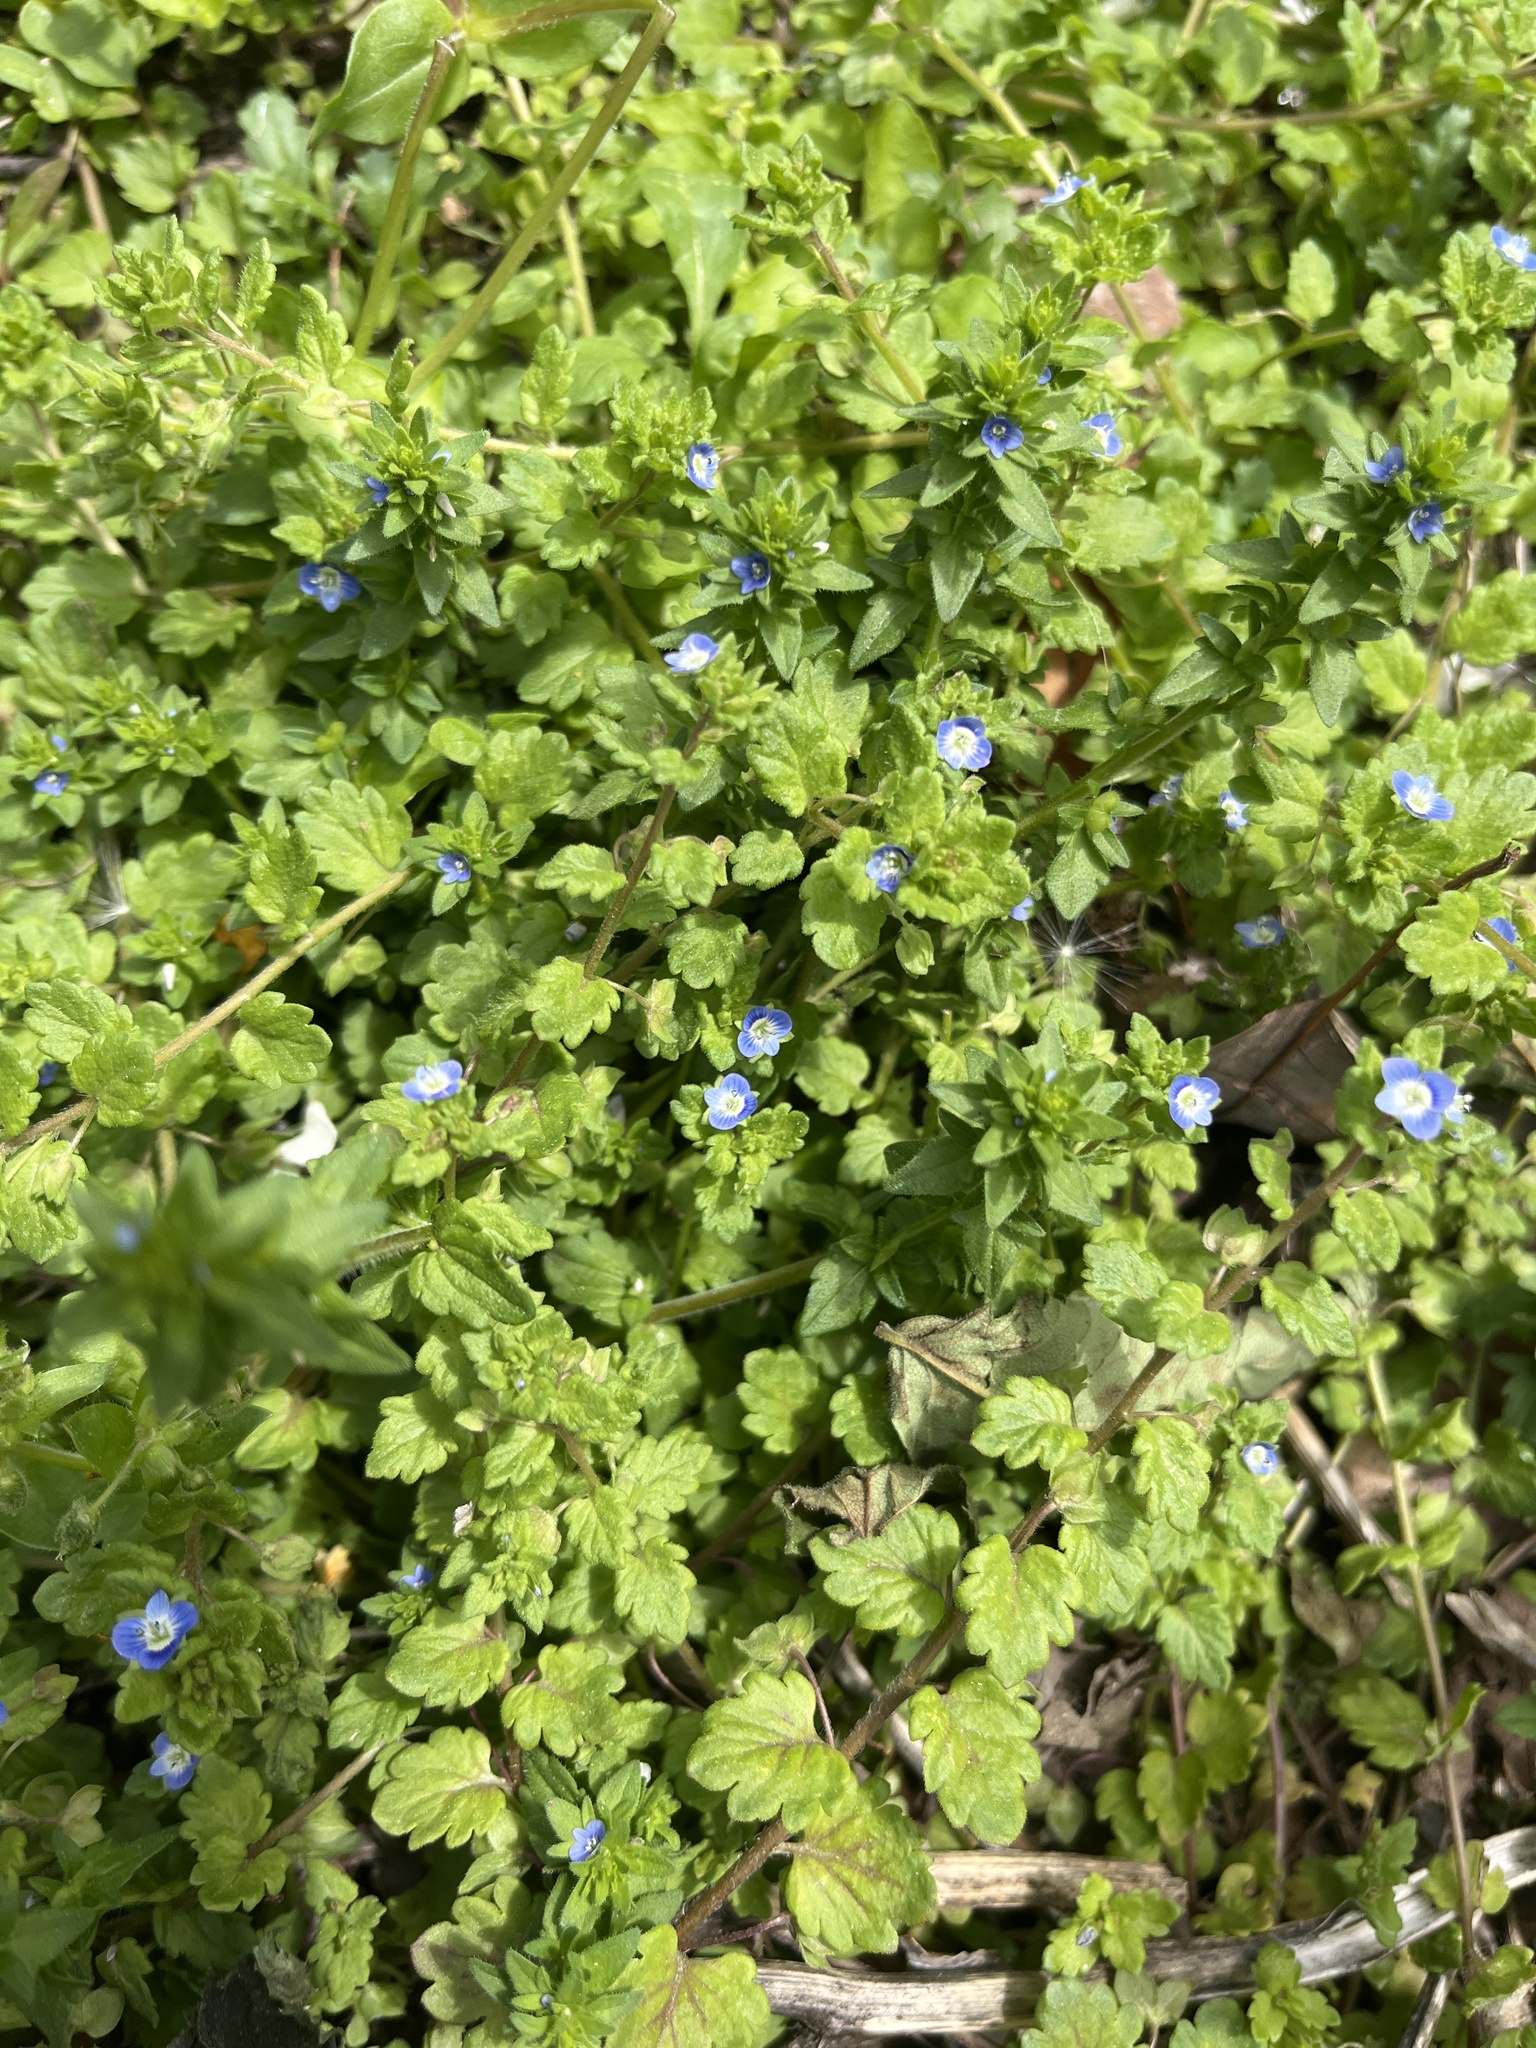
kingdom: Plantae
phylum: Tracheophyta
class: Magnoliopsida
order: Lamiales
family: Plantaginaceae
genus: Veronica
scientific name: Veronica polita
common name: Grey field-speedwell
